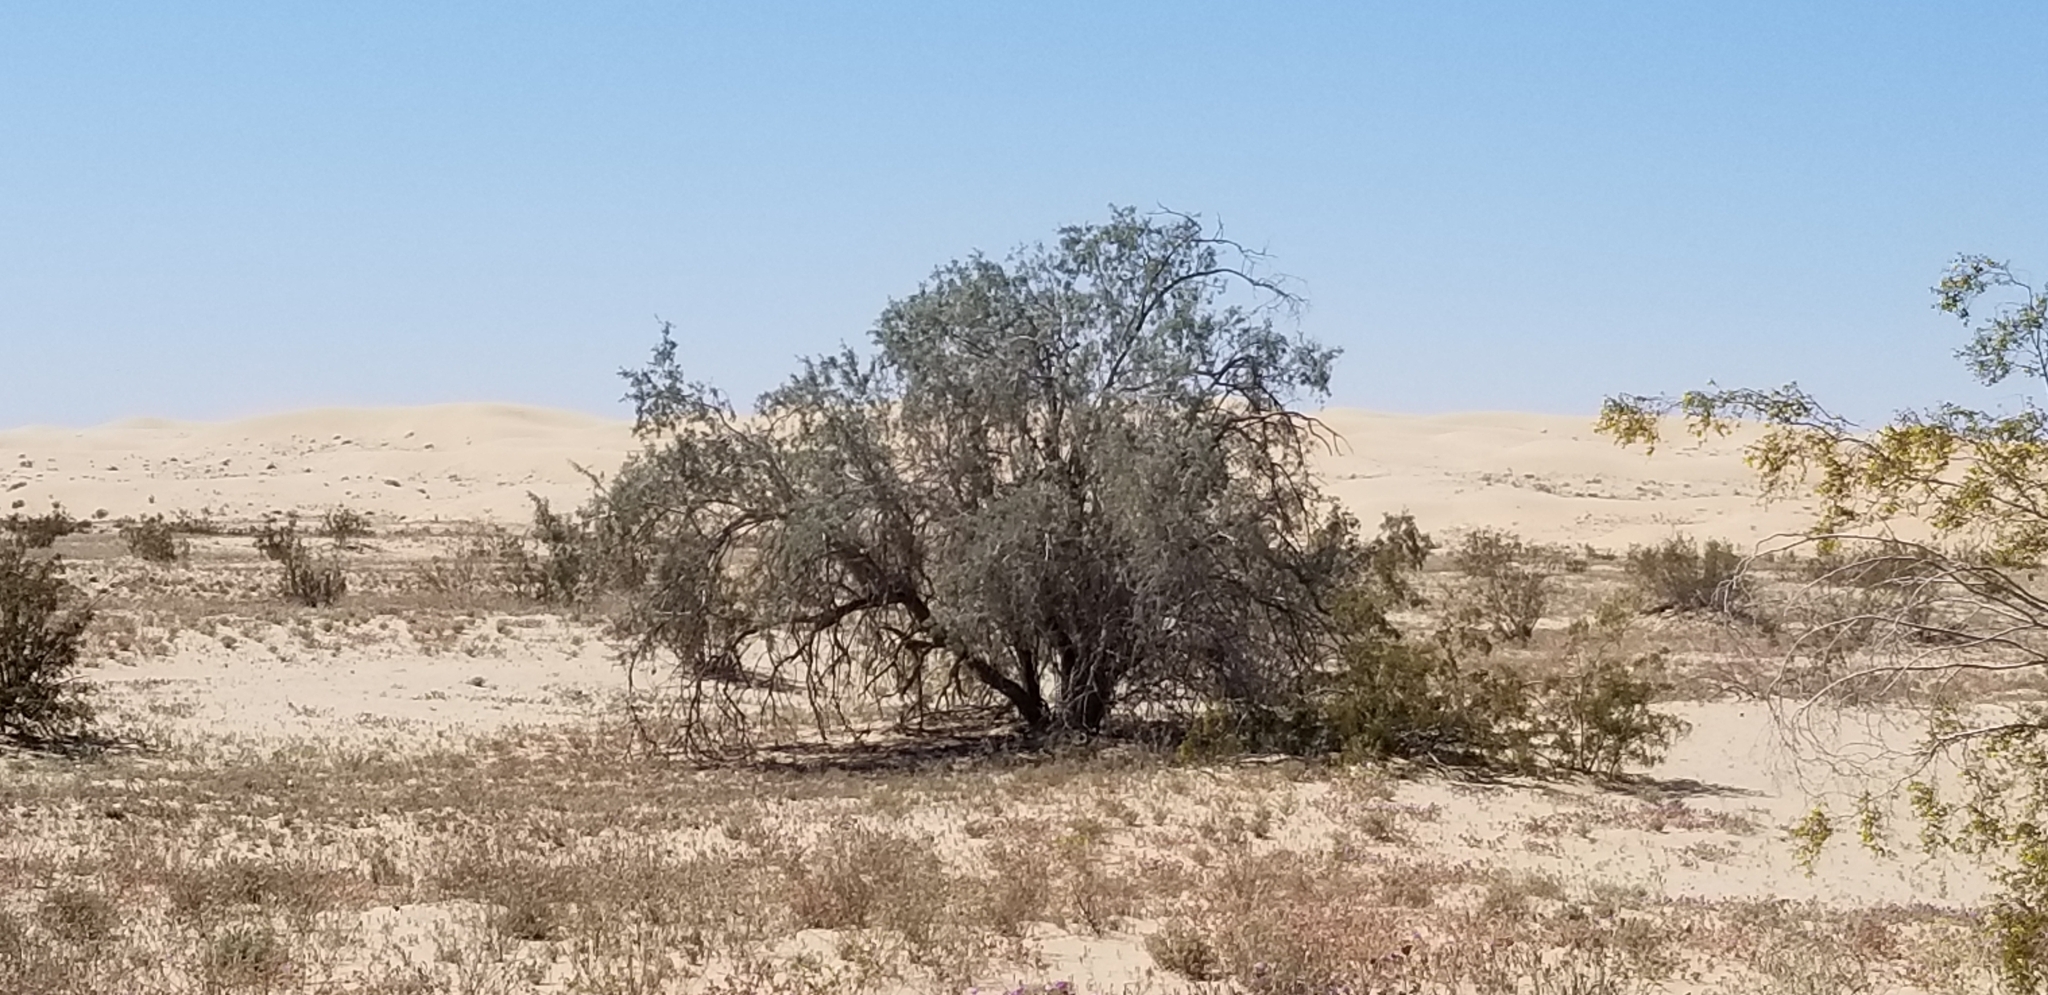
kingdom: Plantae
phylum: Tracheophyta
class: Magnoliopsida
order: Fabales
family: Fabaceae
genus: Olneya
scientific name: Olneya tesota
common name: Desert ironwood
